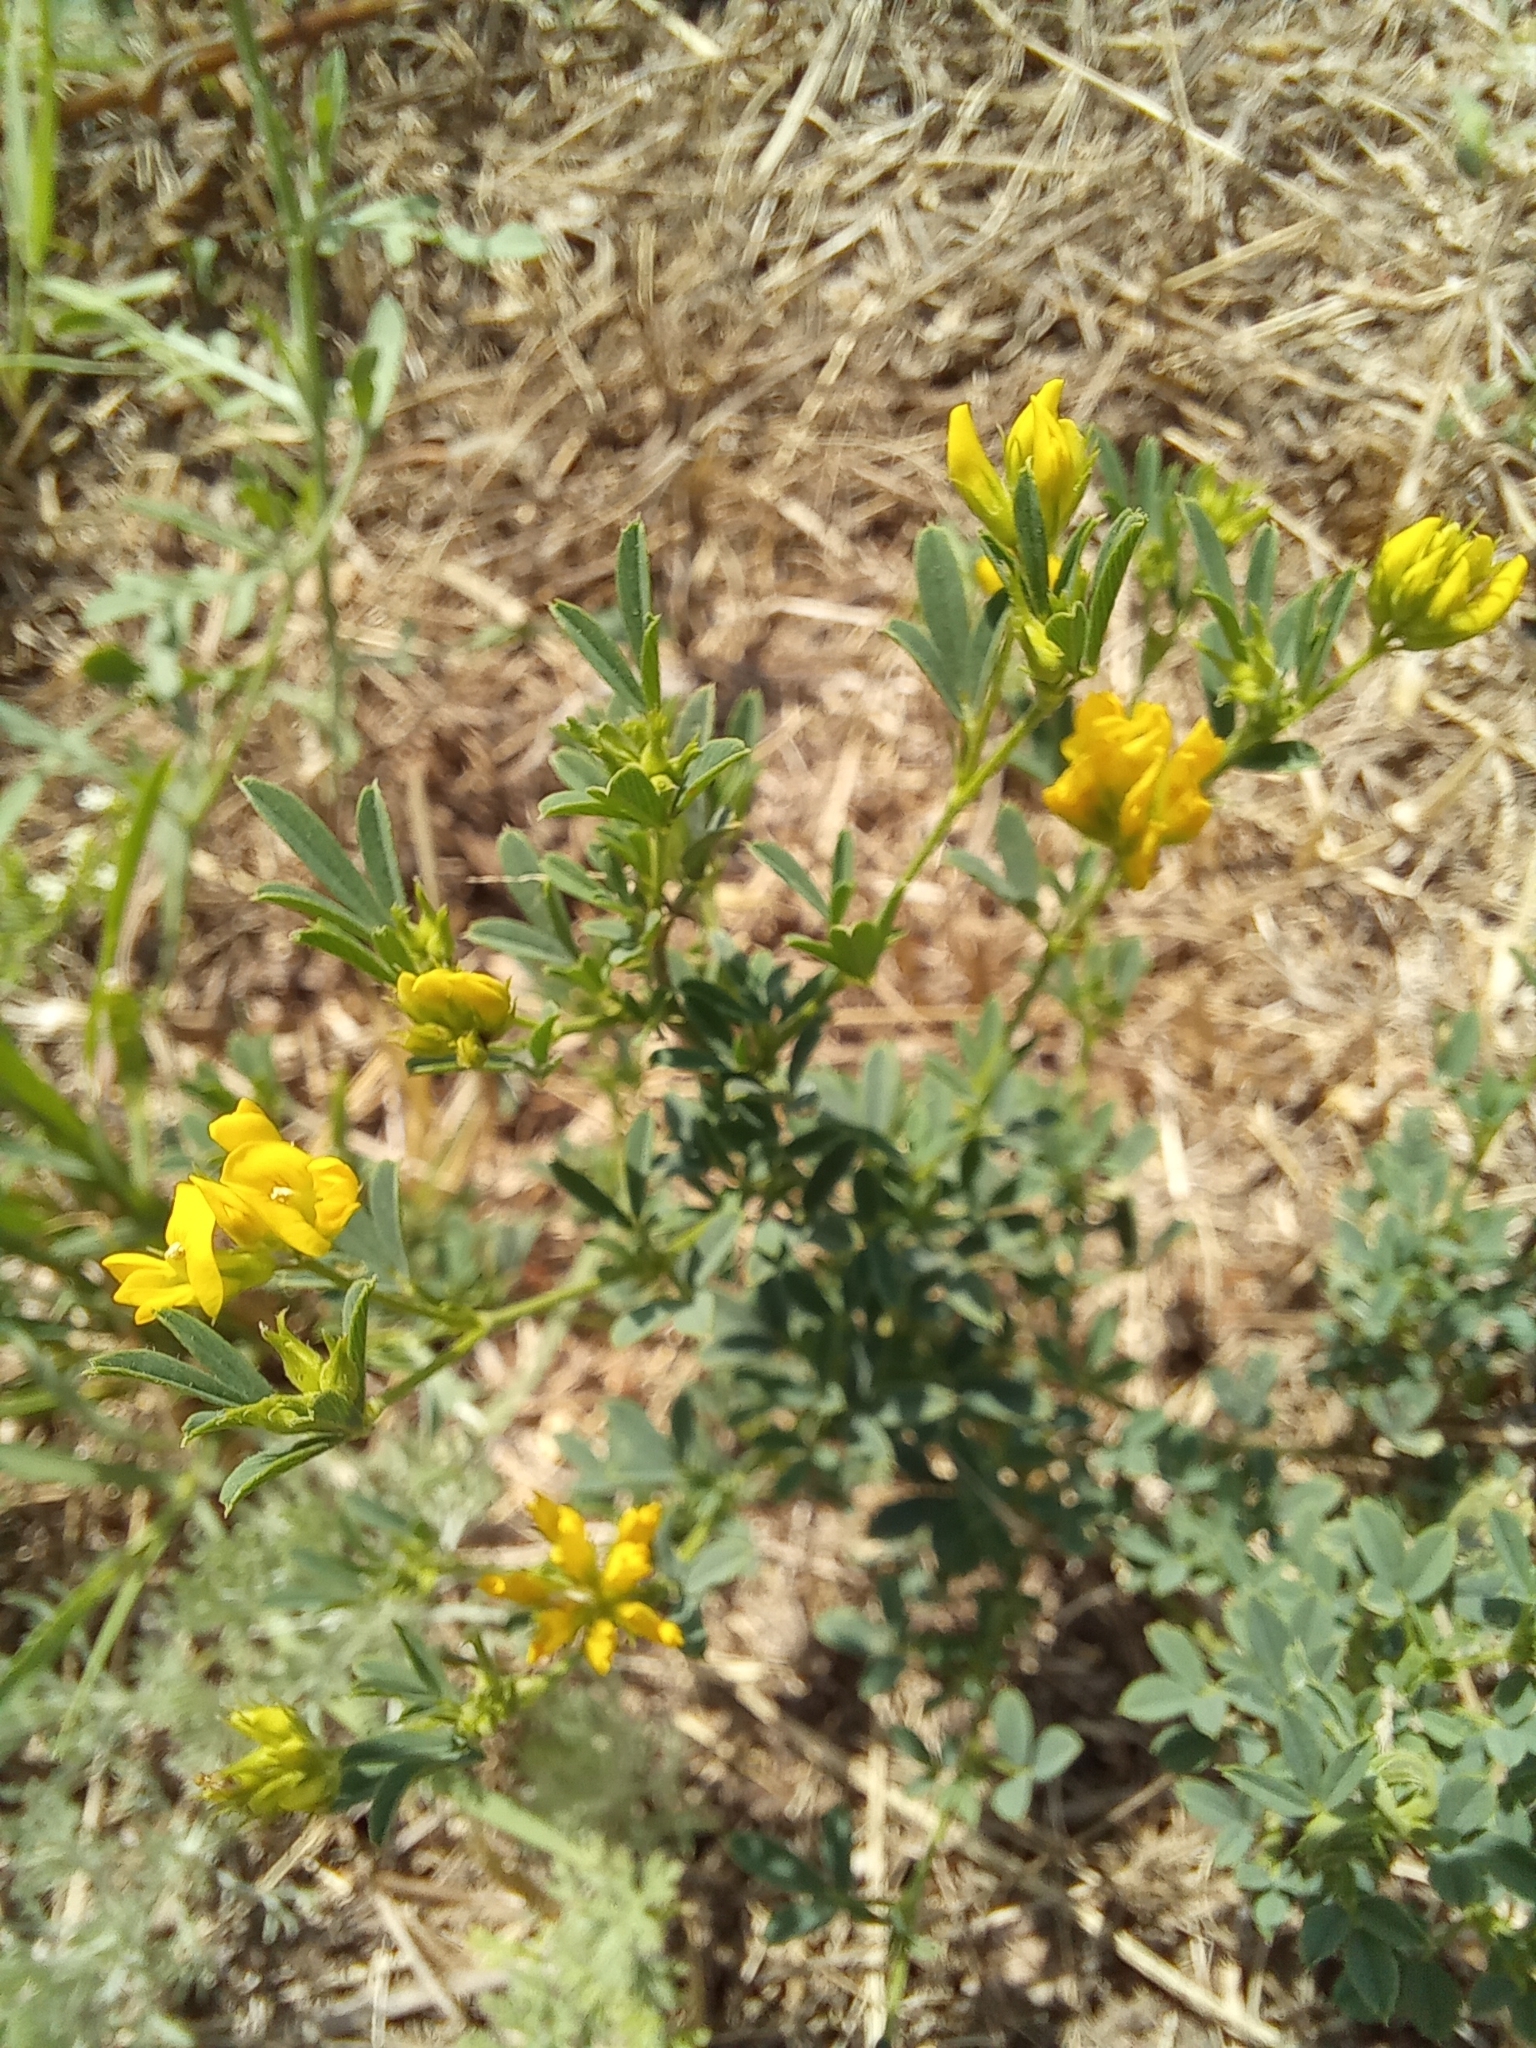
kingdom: Plantae
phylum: Tracheophyta
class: Magnoliopsida
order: Fabales
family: Fabaceae
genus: Medicago
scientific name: Medicago falcata
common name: Sickle medick
